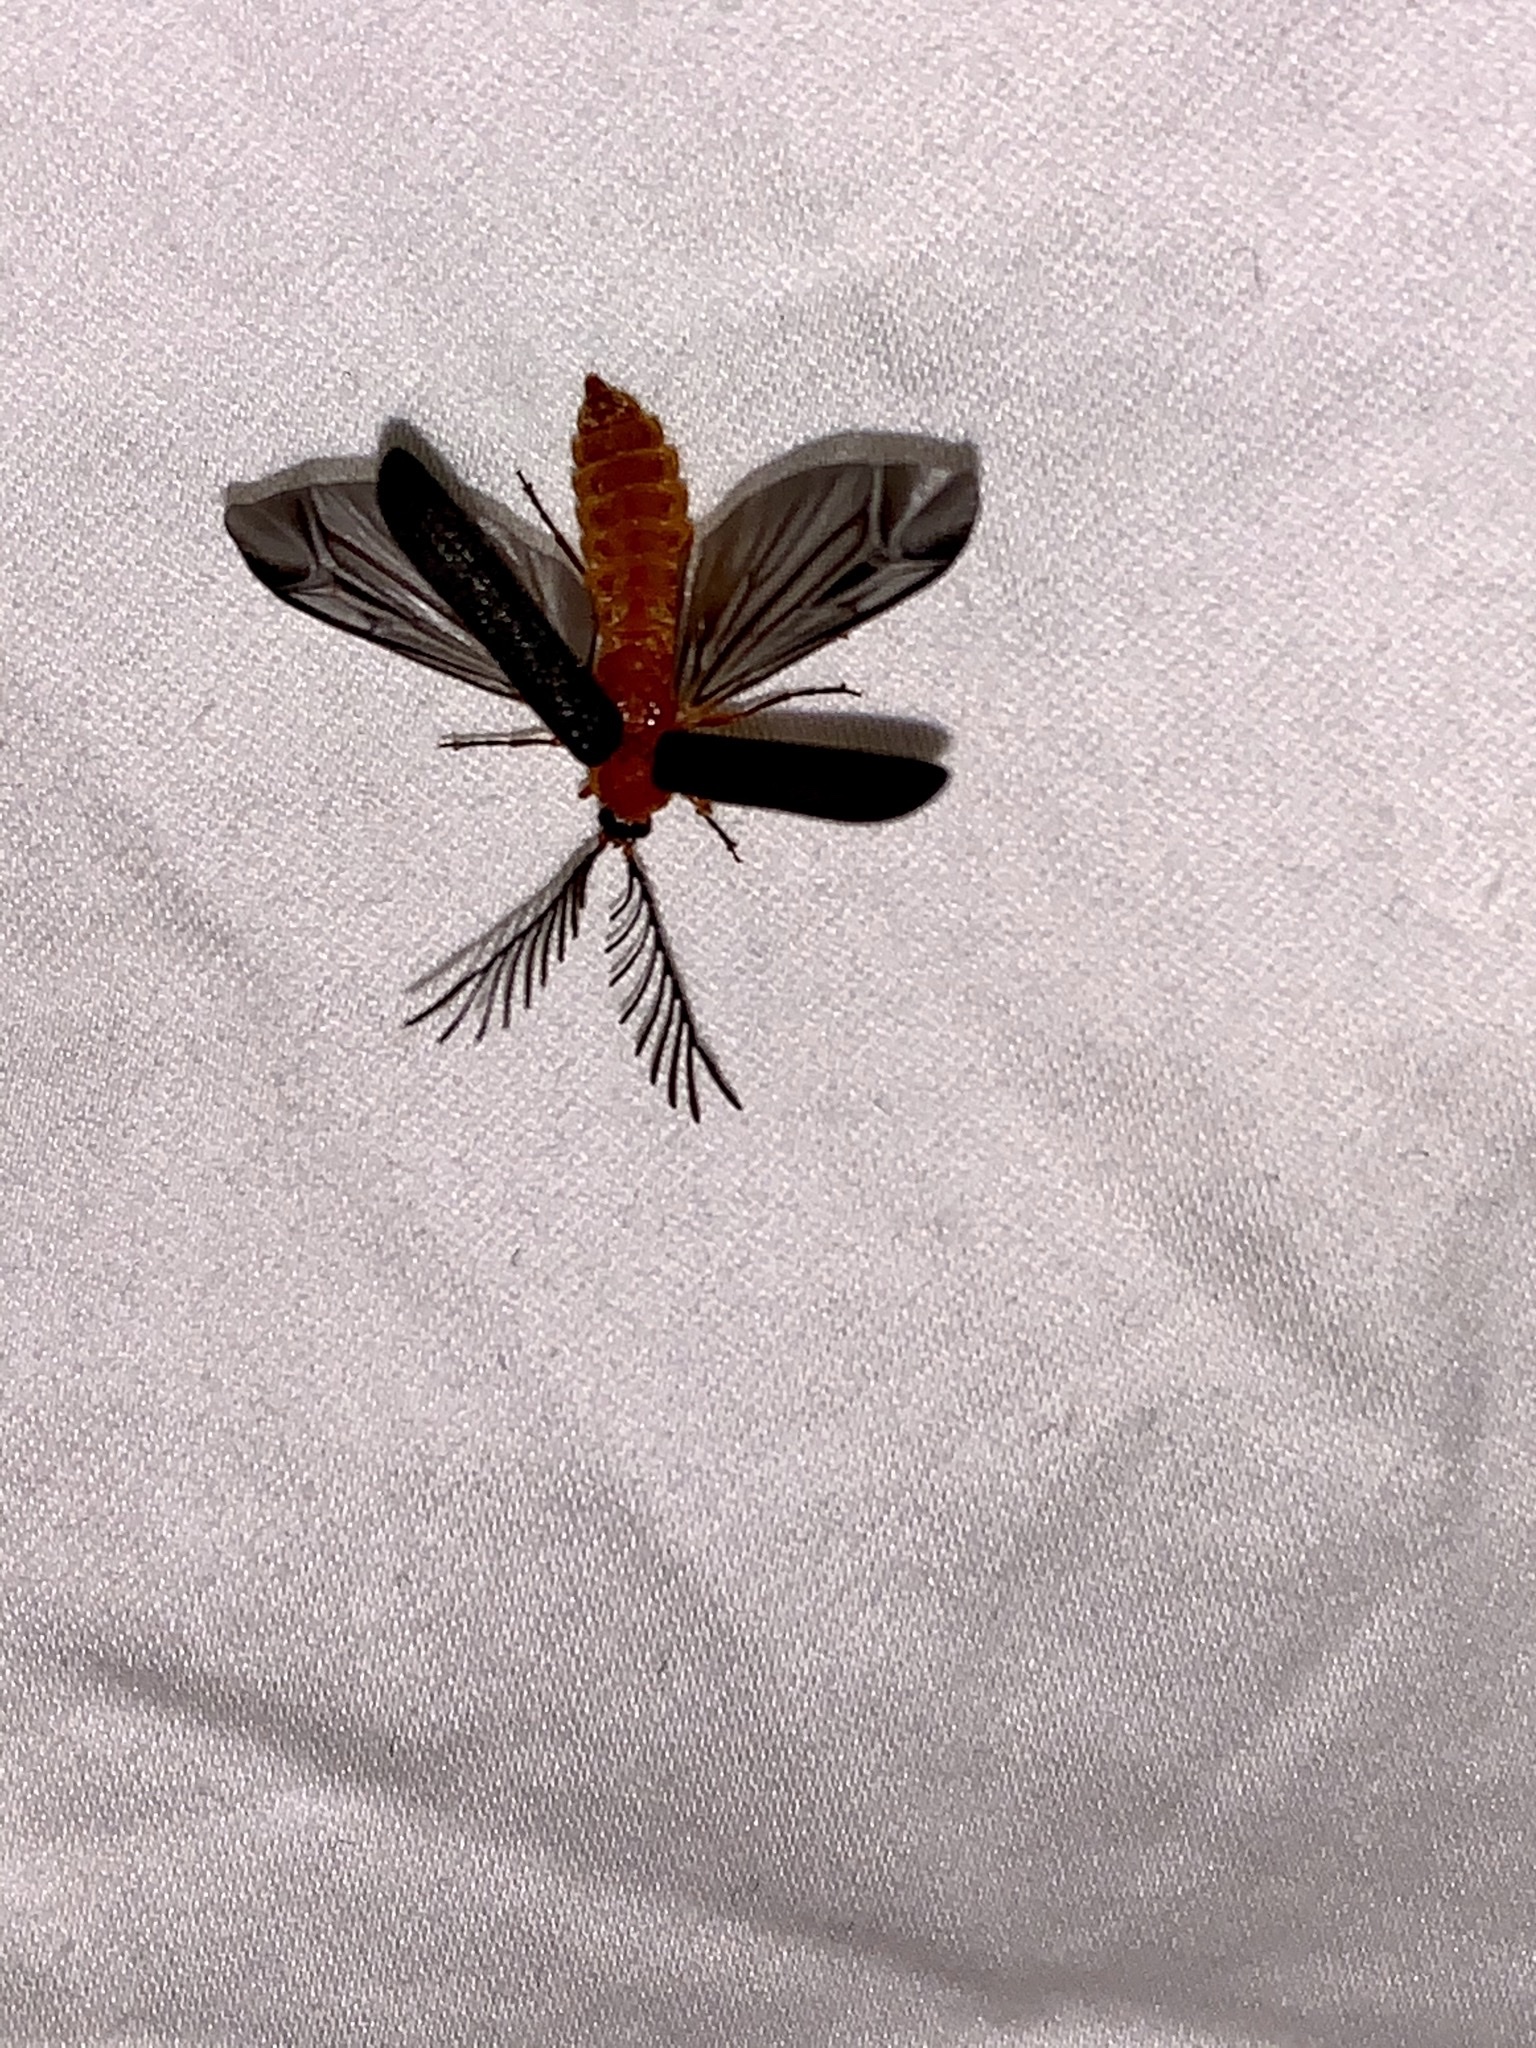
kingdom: Animalia
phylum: Arthropoda
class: Insecta
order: Coleoptera
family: Lampyridae
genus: Pterotus
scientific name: Pterotus obscuripennis
